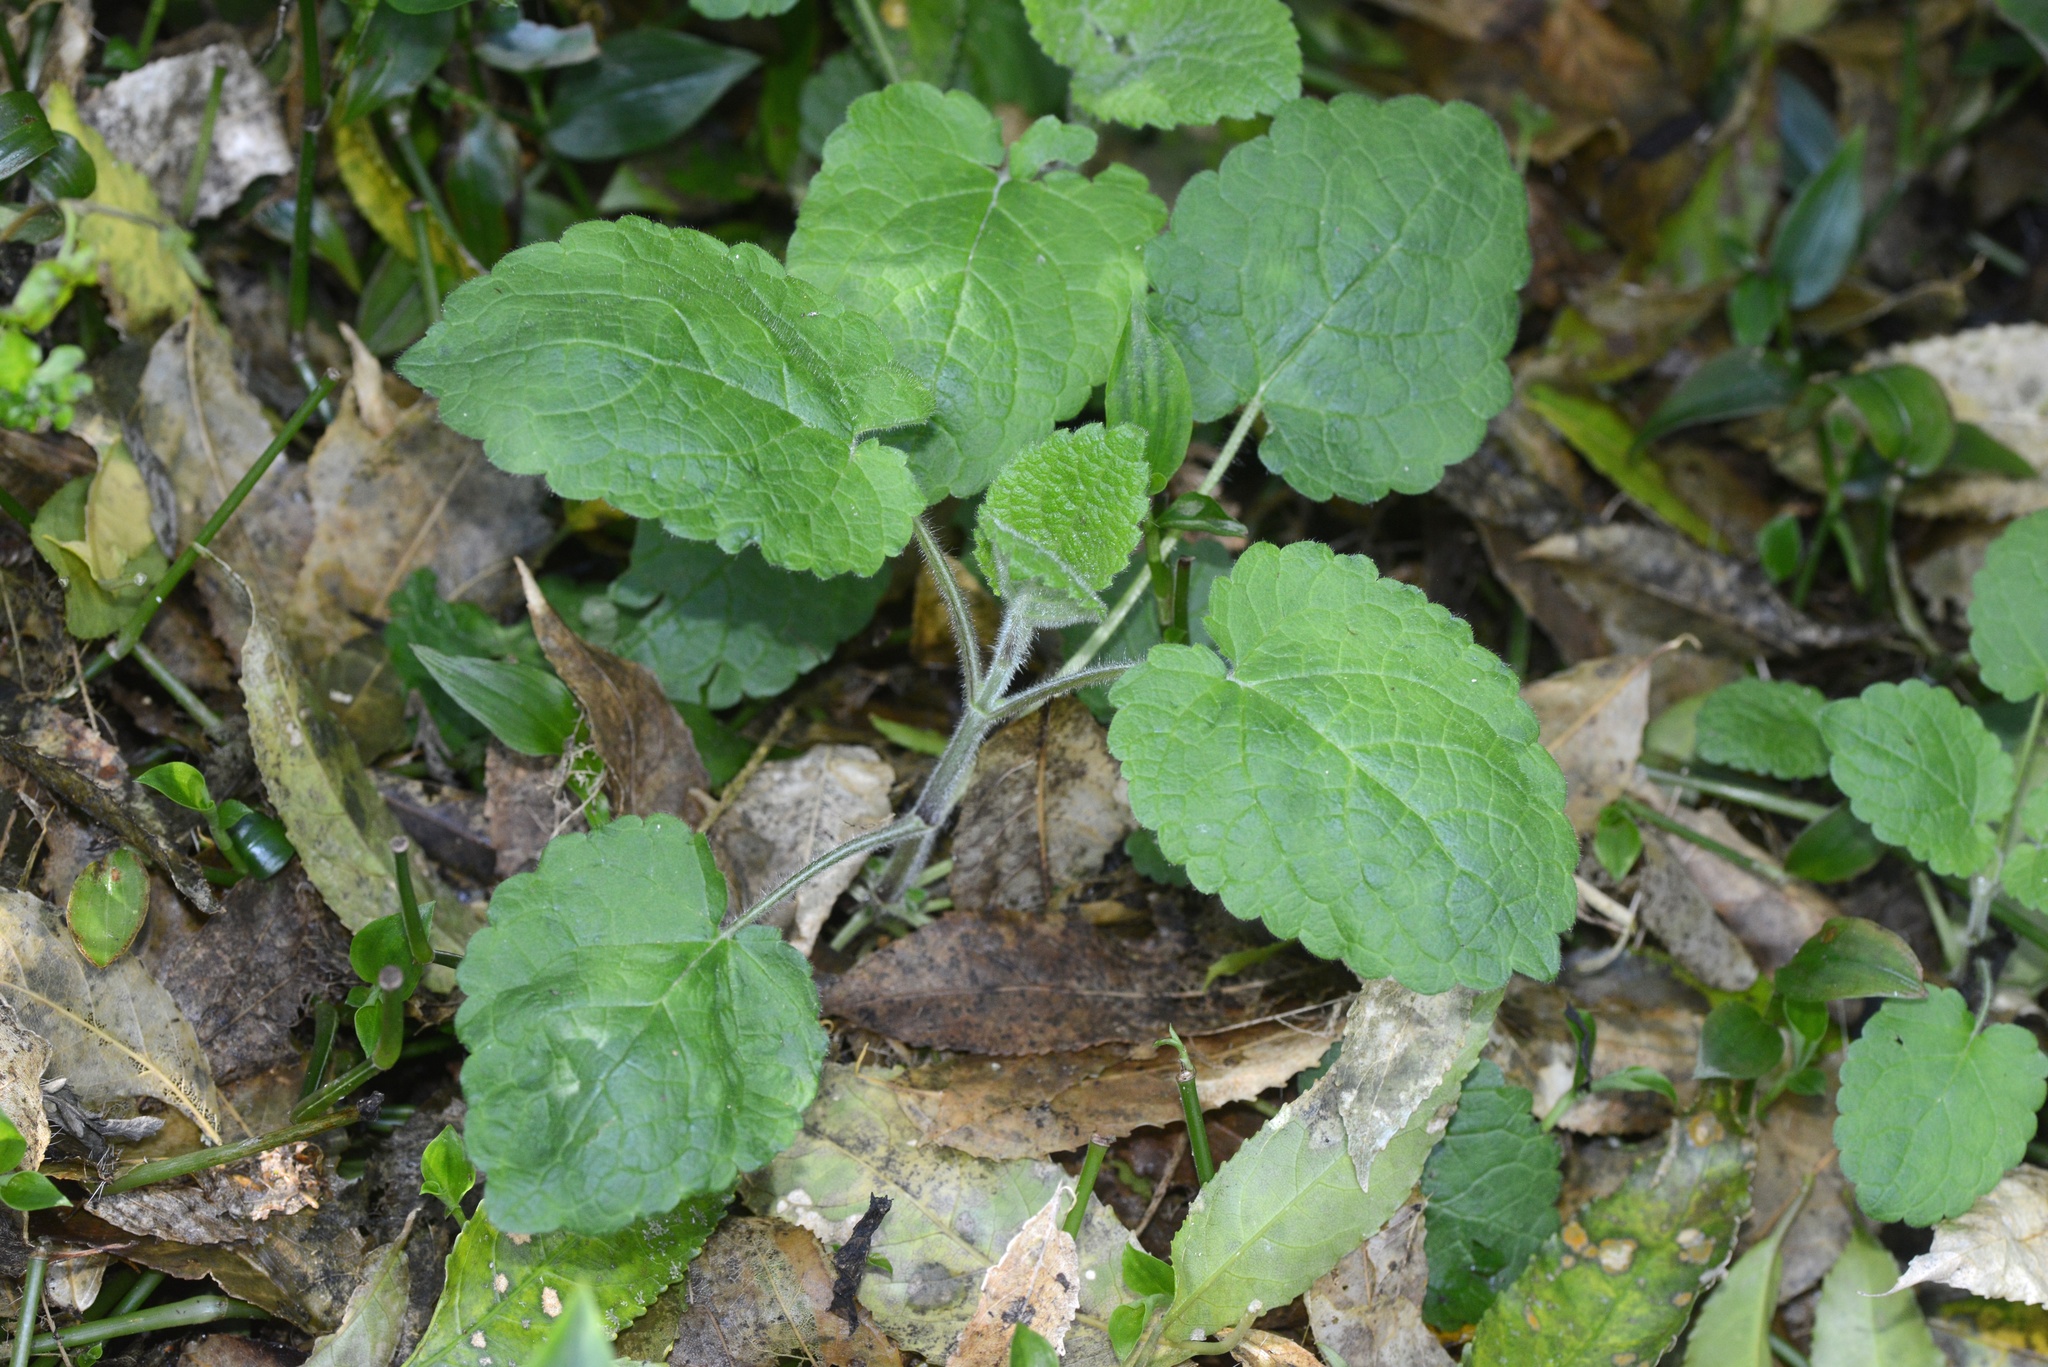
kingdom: Plantae
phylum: Tracheophyta
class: Magnoliopsida
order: Lamiales
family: Lamiaceae
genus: Stachys
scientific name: Stachys sylvatica
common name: Hedge woundwort
